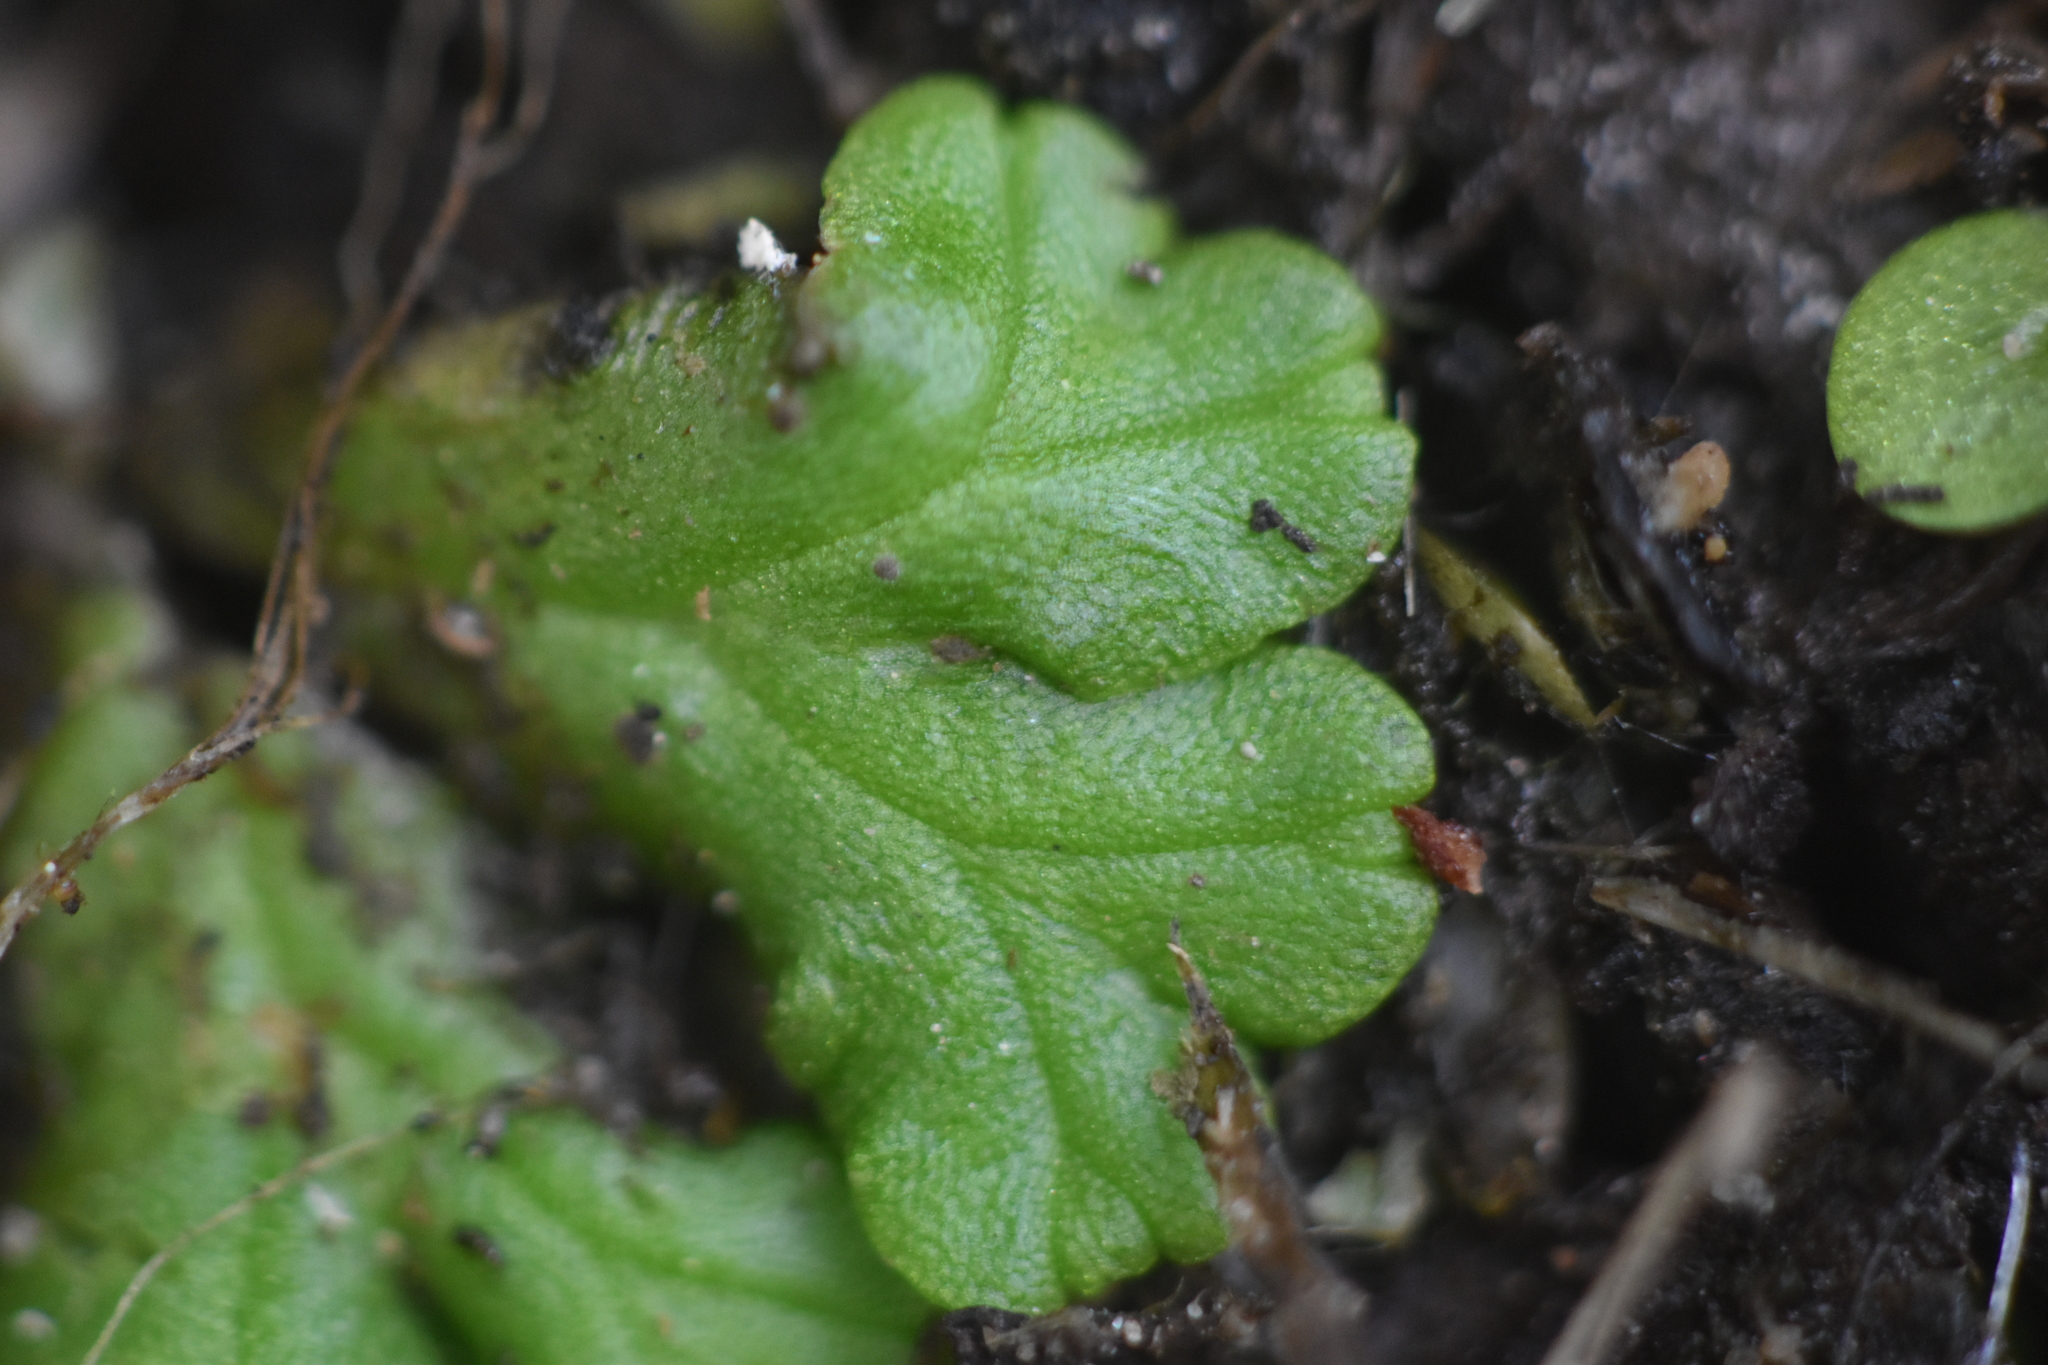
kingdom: Plantae
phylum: Marchantiophyta
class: Marchantiopsida
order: Marchantiales
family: Ricciaceae
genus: Ricciocarpos
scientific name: Ricciocarpos natans
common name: Purple-fringed liverwort
